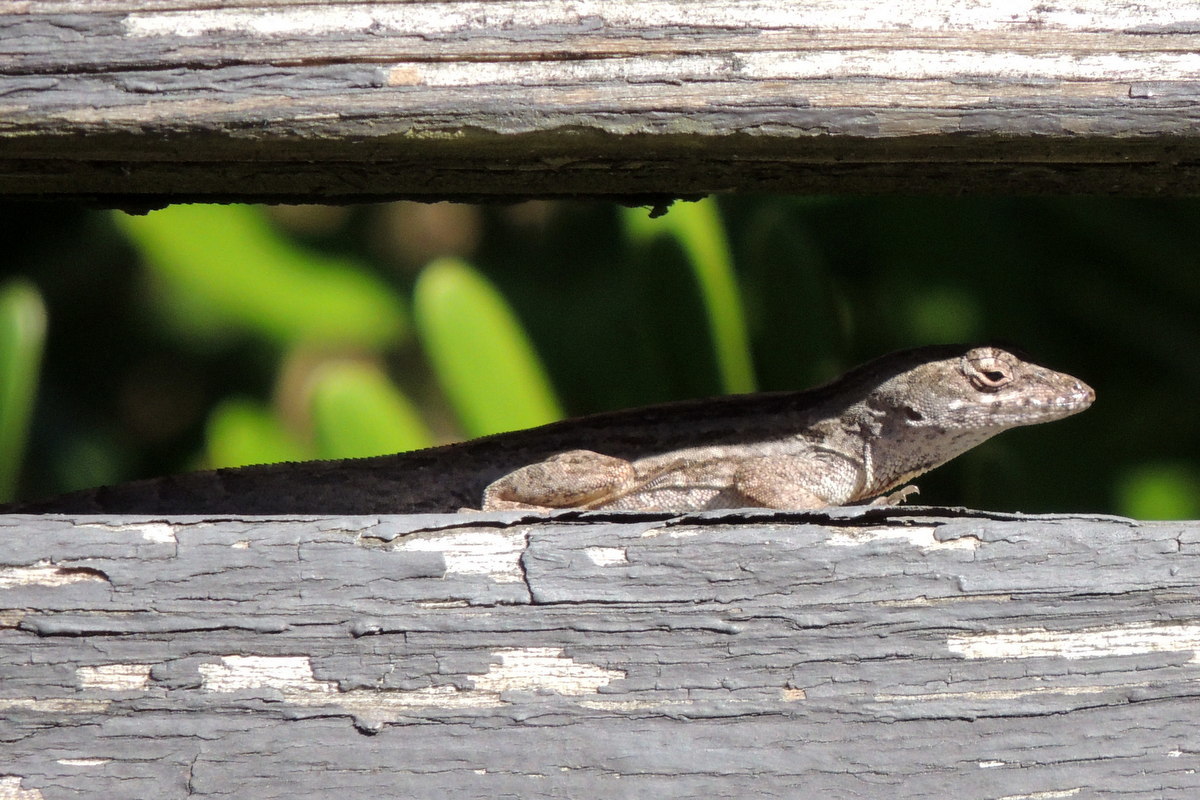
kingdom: Animalia
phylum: Chordata
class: Squamata
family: Dactyloidae
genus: Anolis
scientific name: Anolis sagrei
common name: Brown anole
